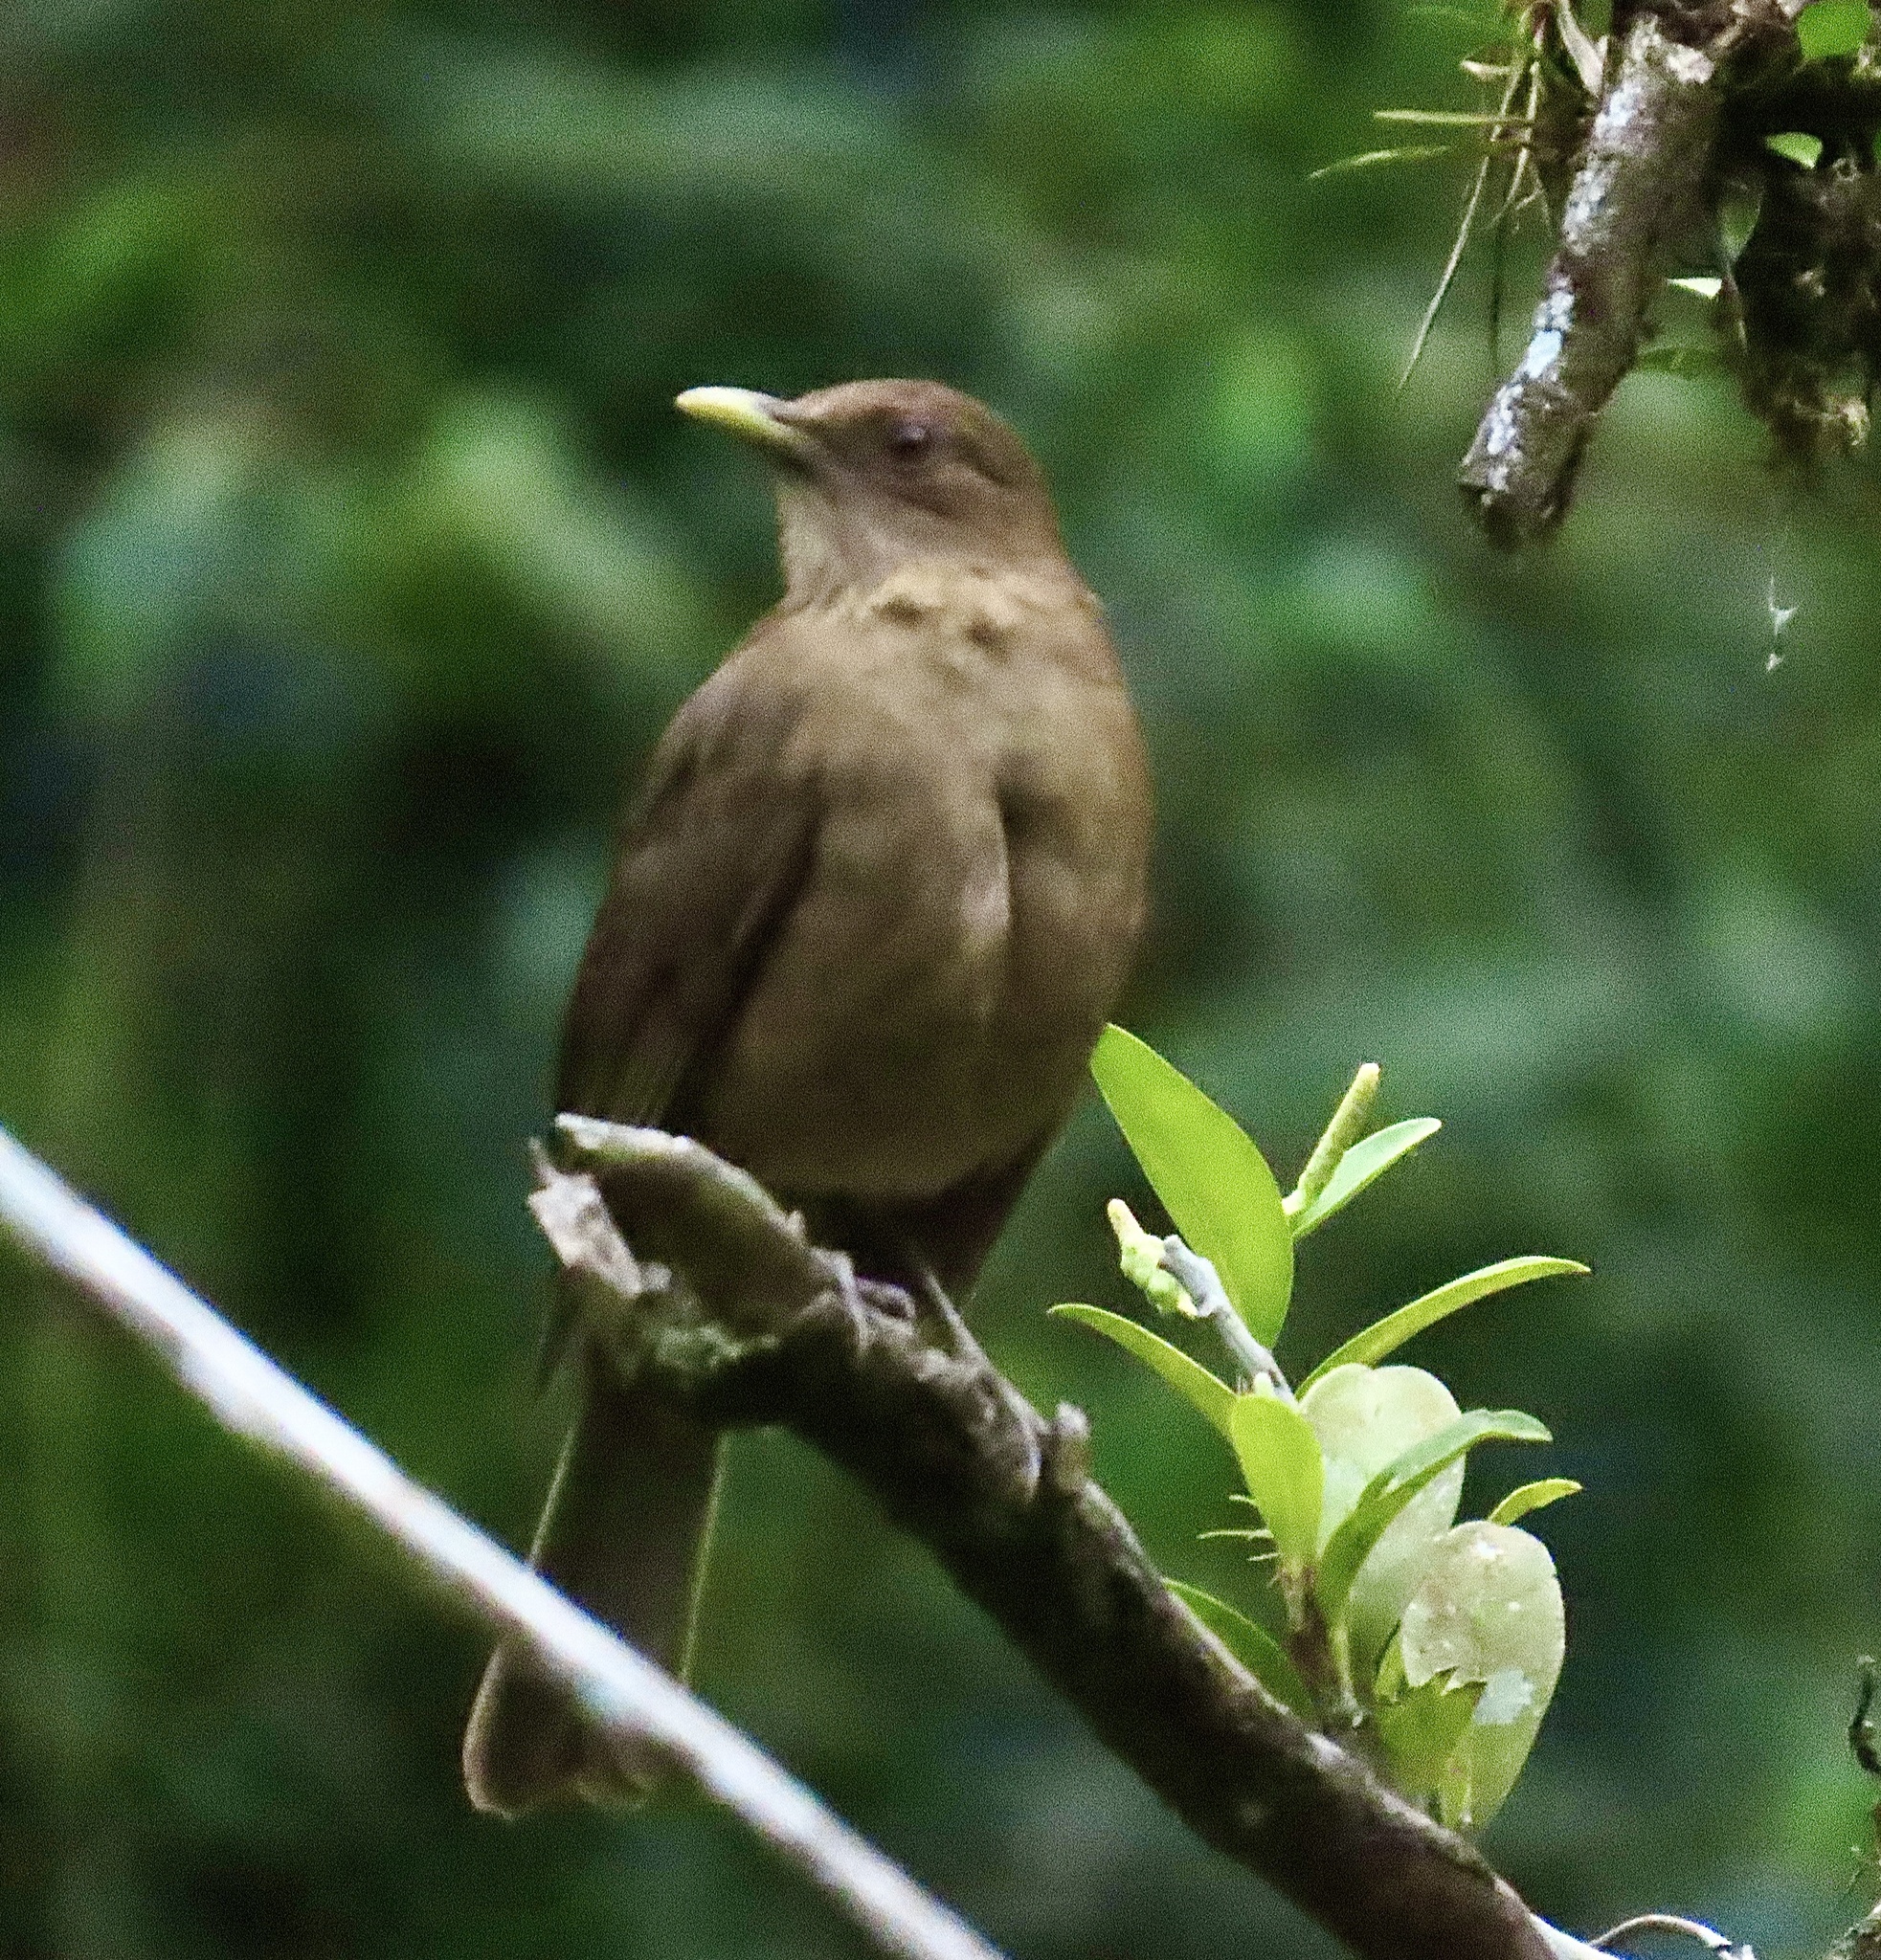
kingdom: Animalia
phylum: Chordata
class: Aves
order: Passeriformes
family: Turdidae
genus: Turdus
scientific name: Turdus grayi
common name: Clay-colored thrush
